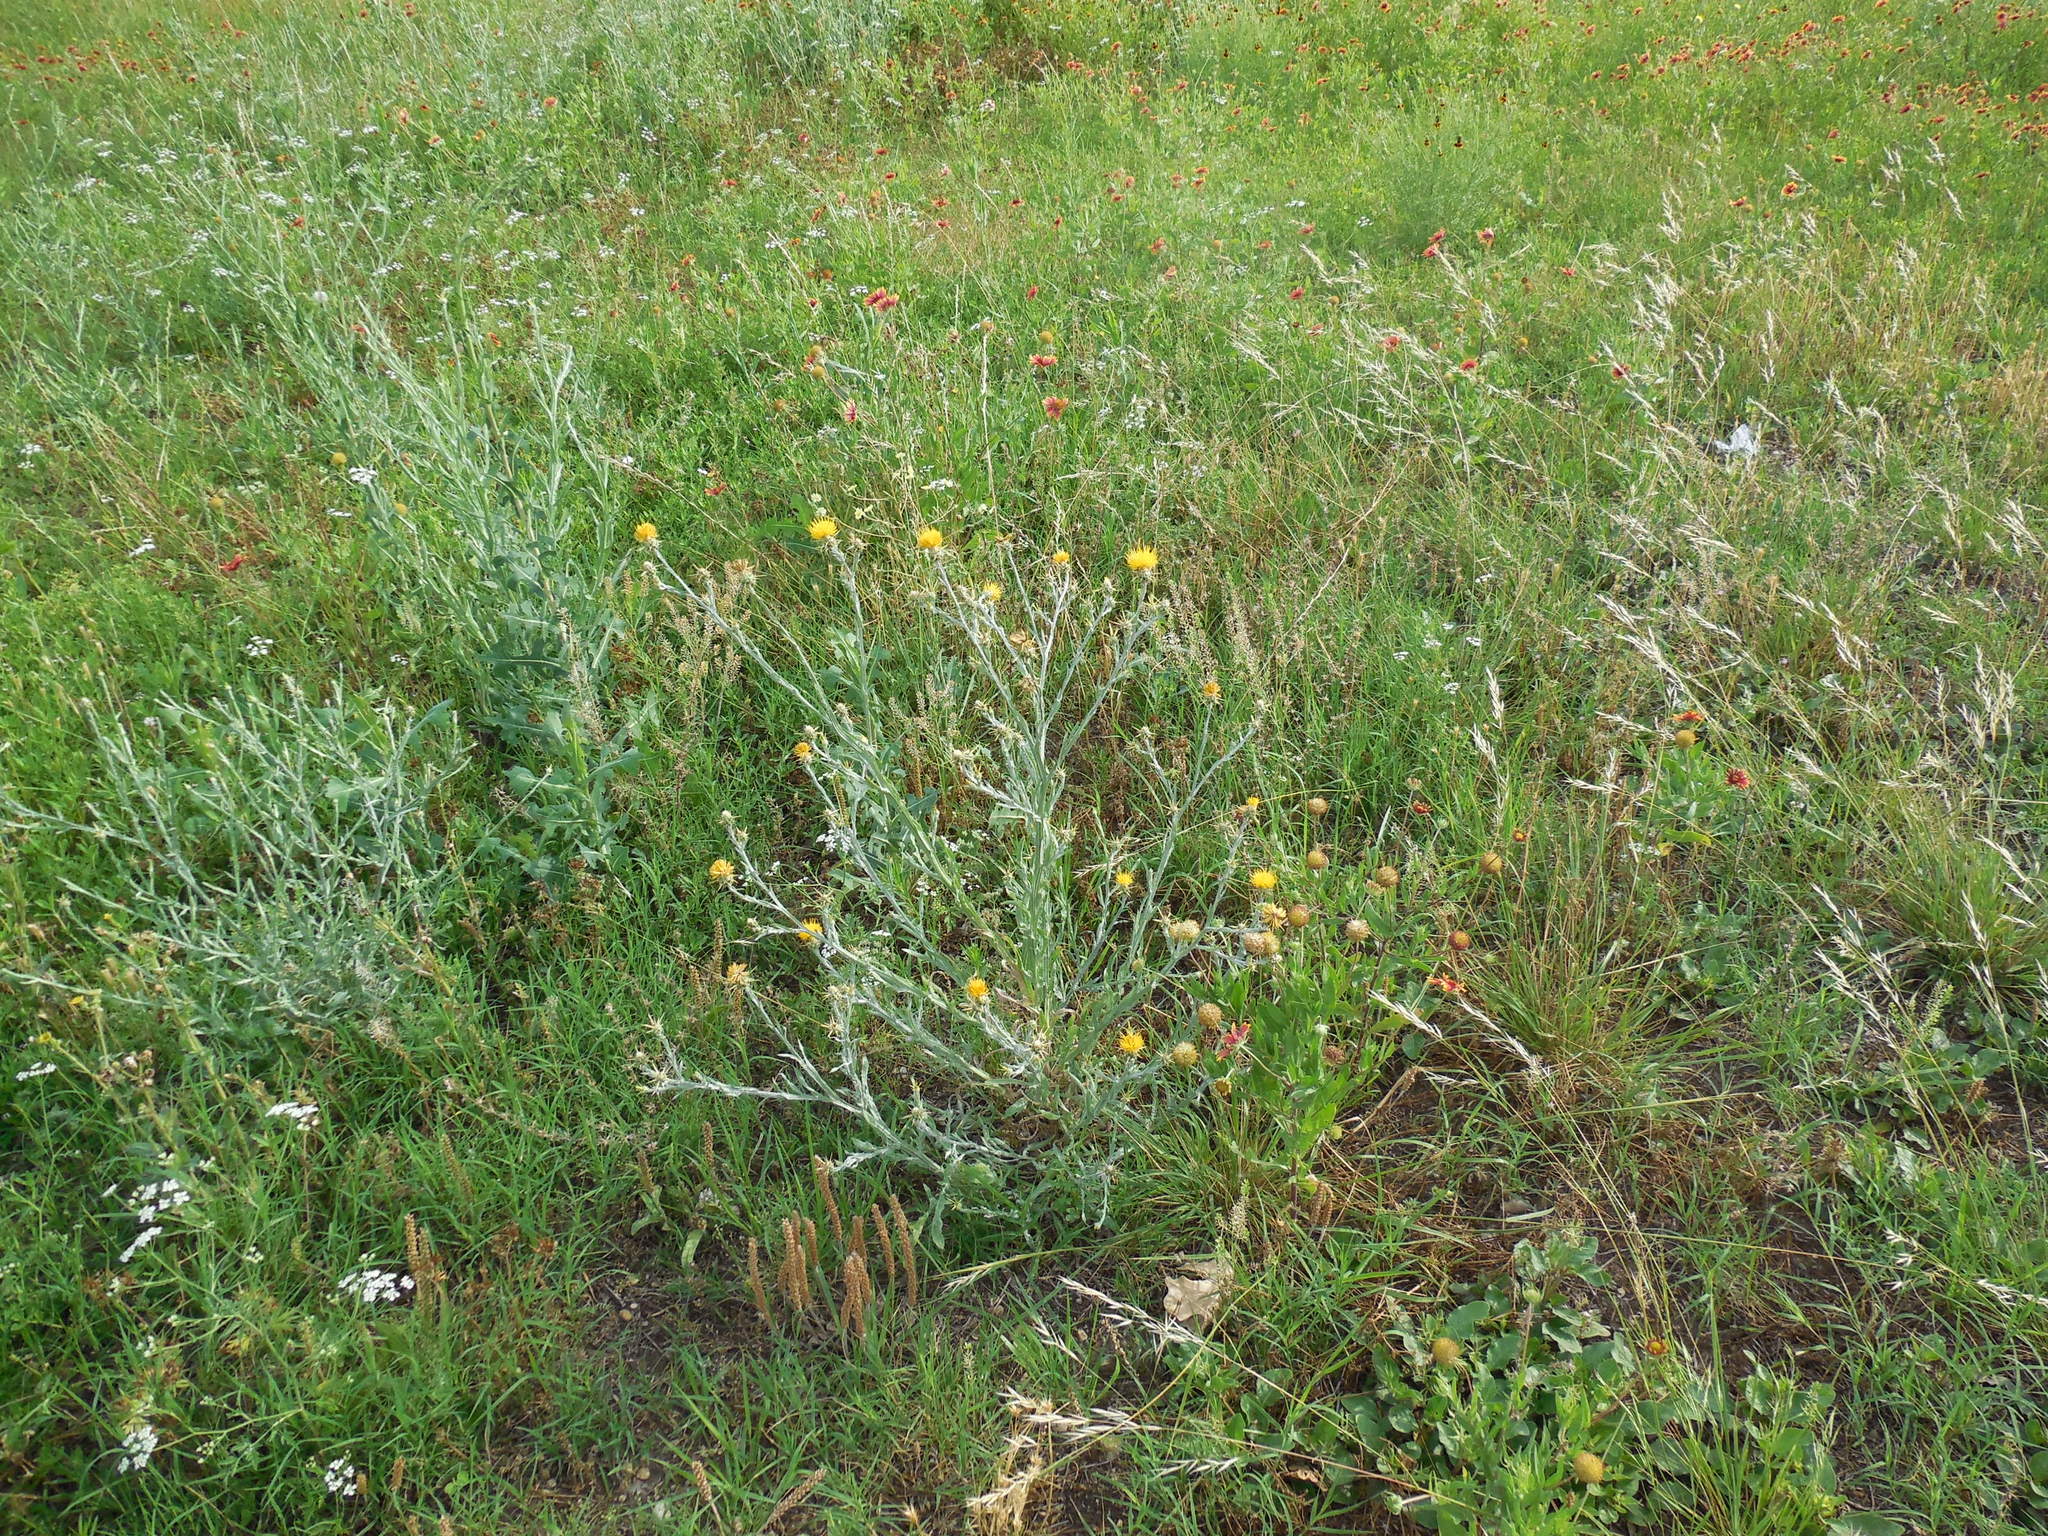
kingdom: Plantae
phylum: Tracheophyta
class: Magnoliopsida
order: Asterales
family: Asteraceae
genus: Centaurea
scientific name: Centaurea solstitialis
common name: Yellow star-thistle
